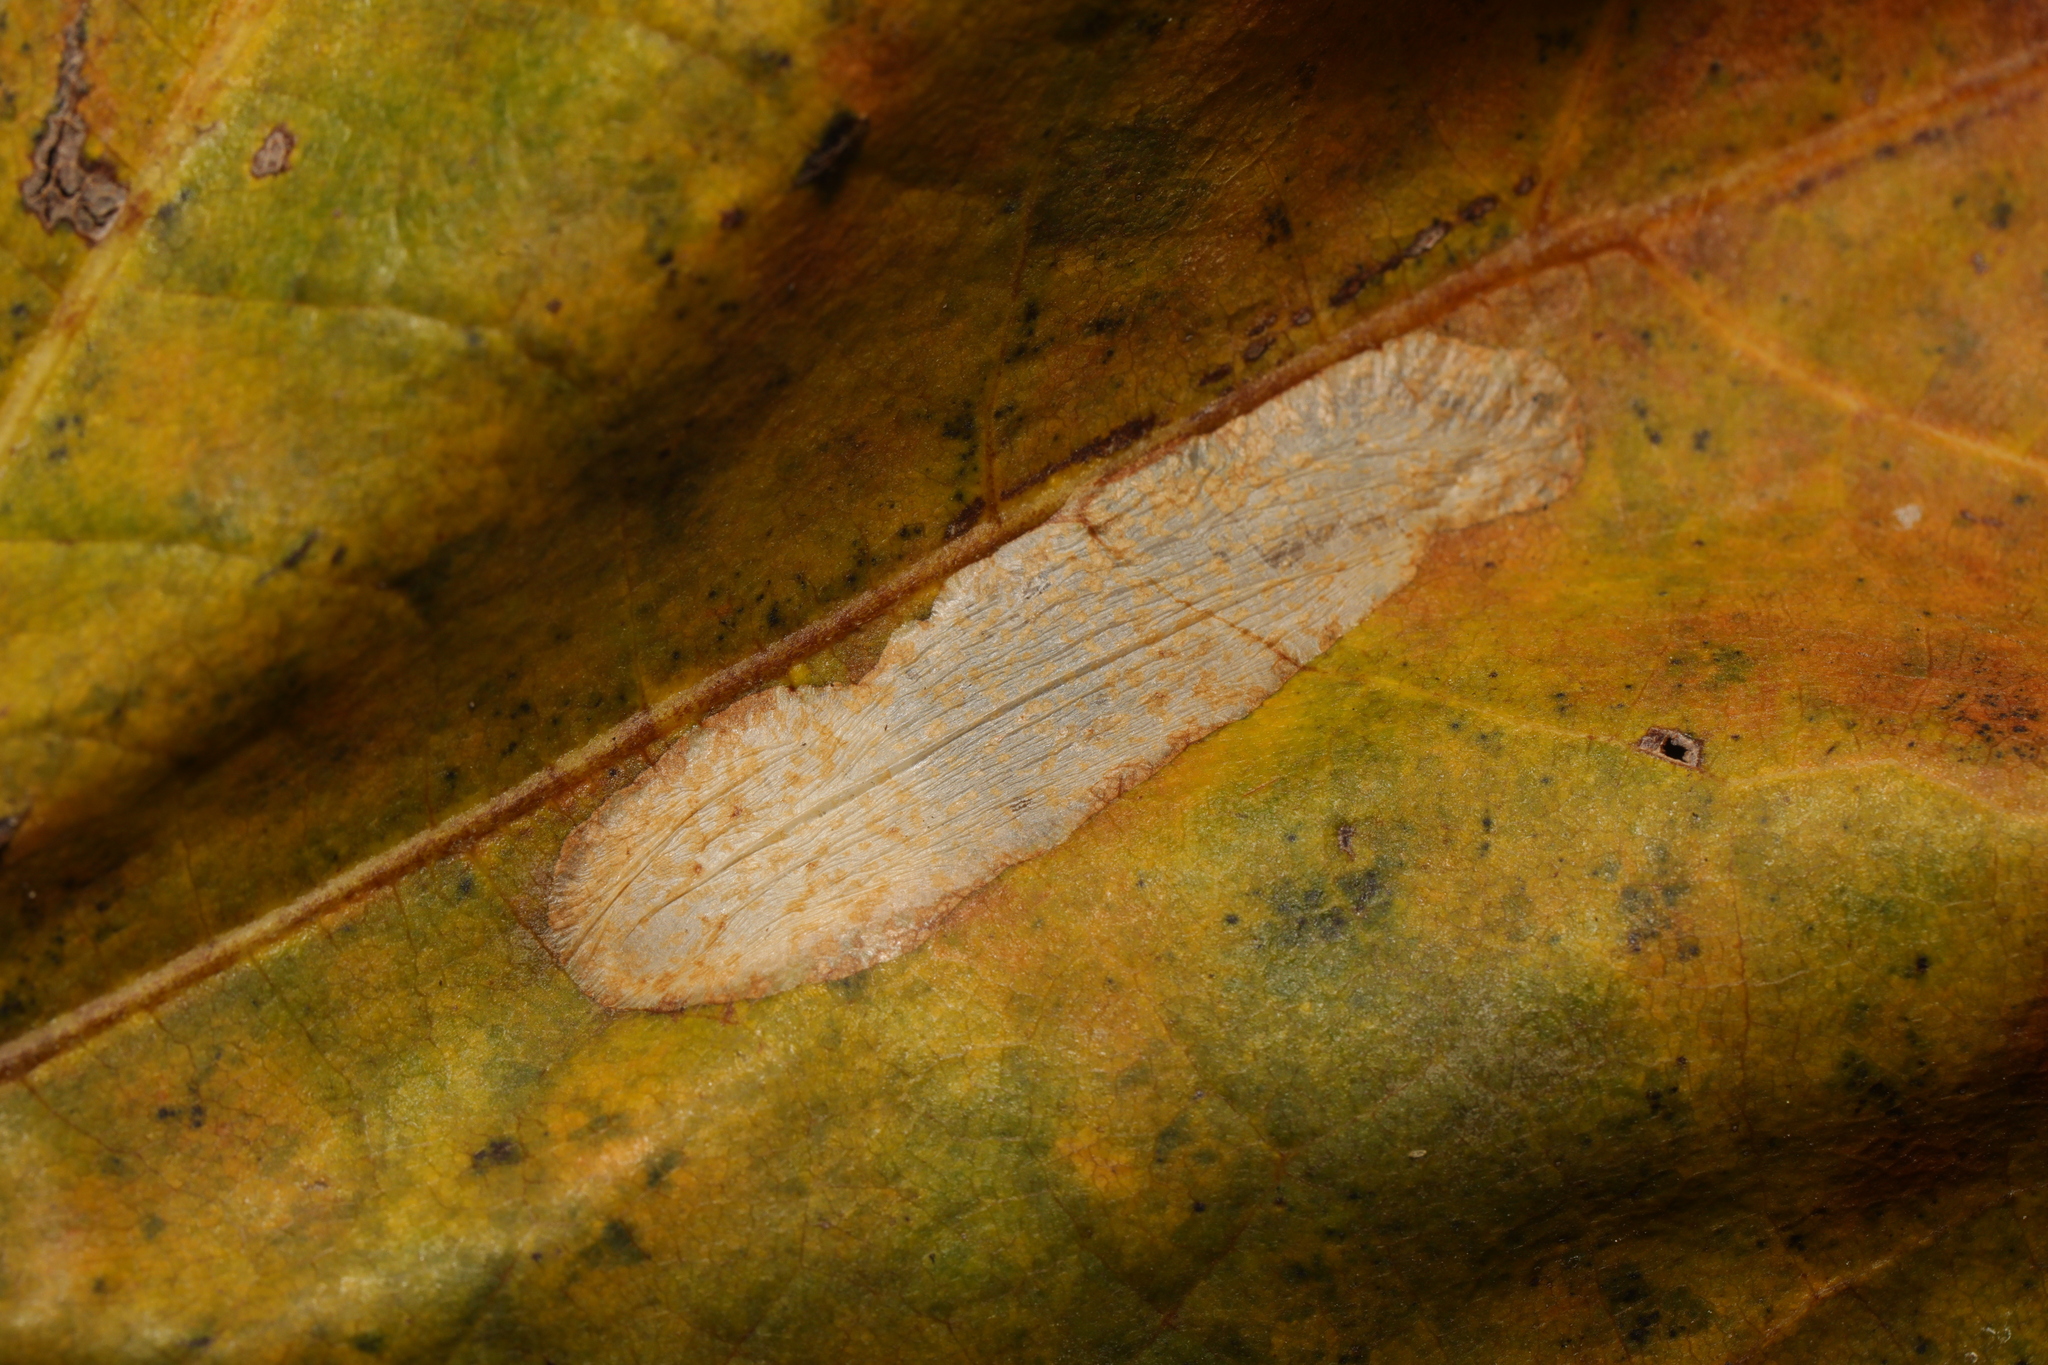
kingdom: Animalia
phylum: Arthropoda
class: Insecta
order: Lepidoptera
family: Gracillariidae
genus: Phyllonorycter
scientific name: Phyllonorycter platani
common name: London midget
